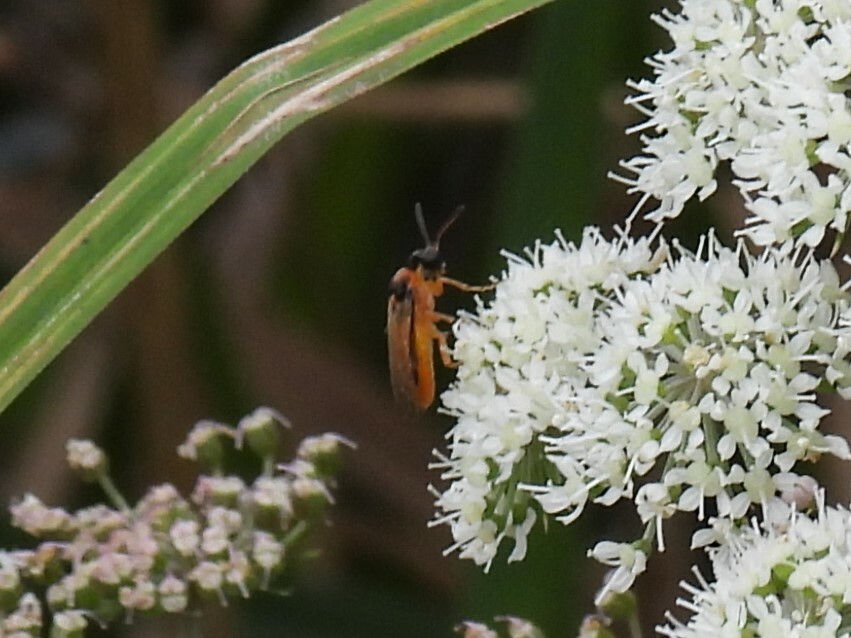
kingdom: Animalia
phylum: Arthropoda
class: Insecta
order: Hymenoptera
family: Tenthredinidae
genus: Athalia
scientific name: Athalia rosae
